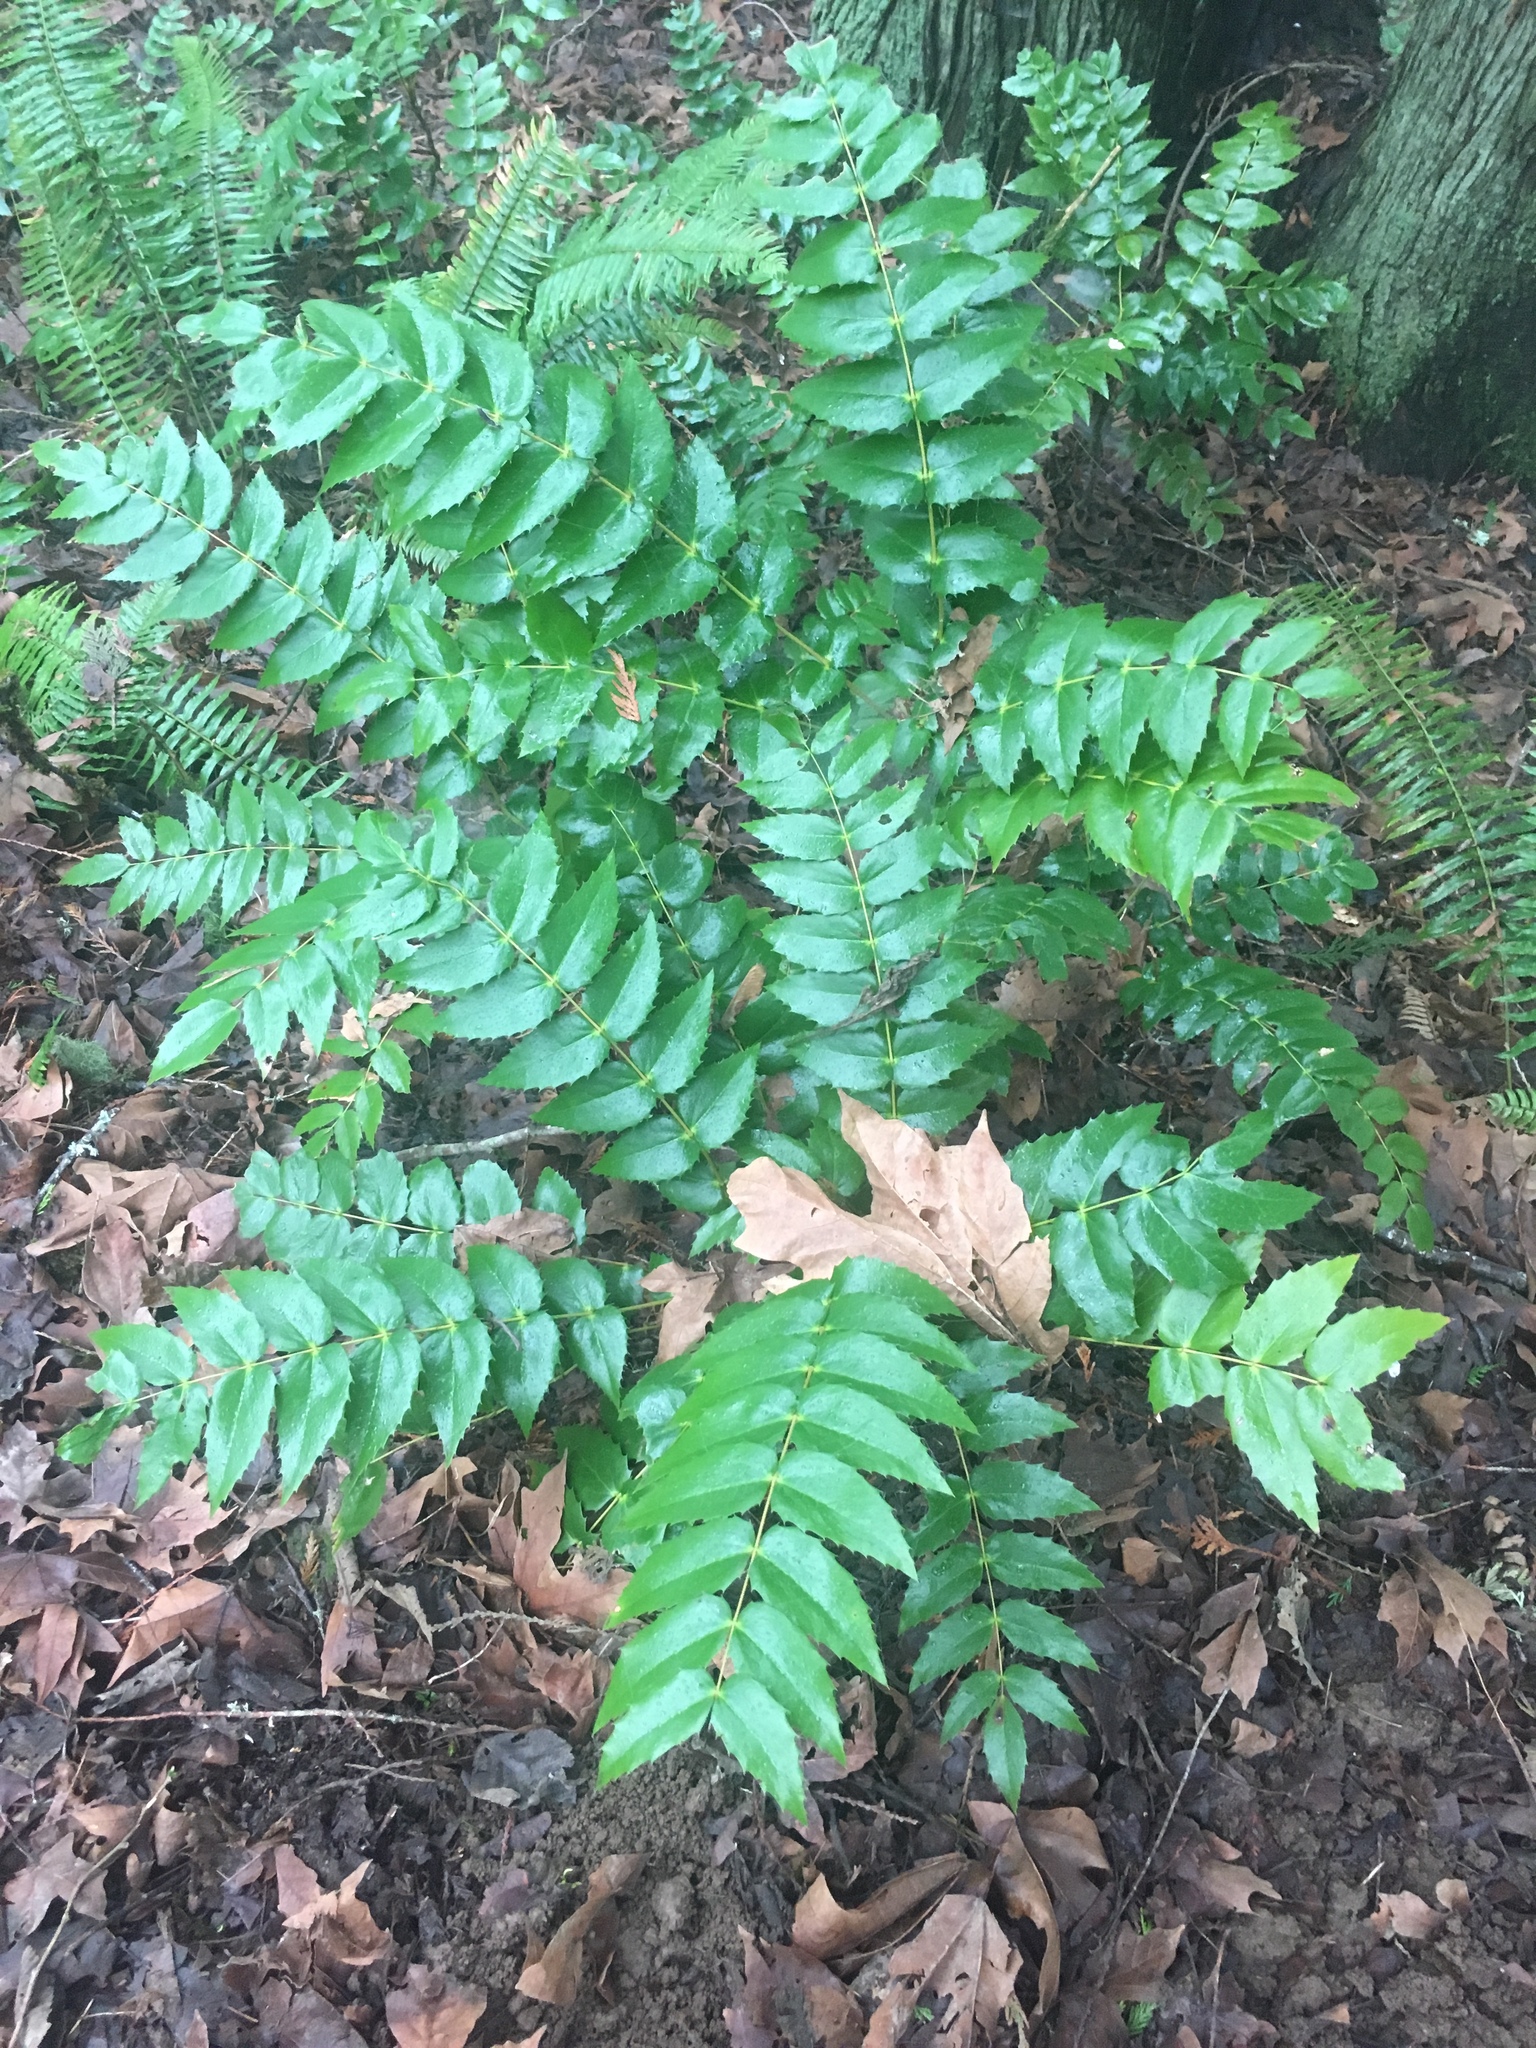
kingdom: Plantae
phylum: Tracheophyta
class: Magnoliopsida
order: Ranunculales
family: Berberidaceae
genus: Mahonia
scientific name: Mahonia nervosa
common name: Cascade oregon-grape
